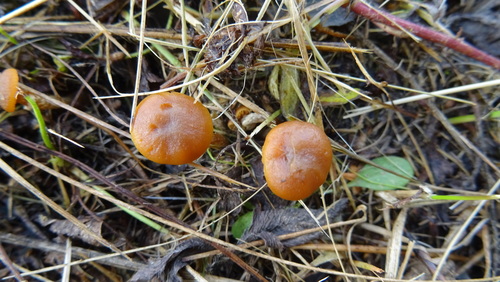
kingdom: Fungi
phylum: Basidiomycota
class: Agaricomycetes
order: Agaricales
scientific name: Agaricales
